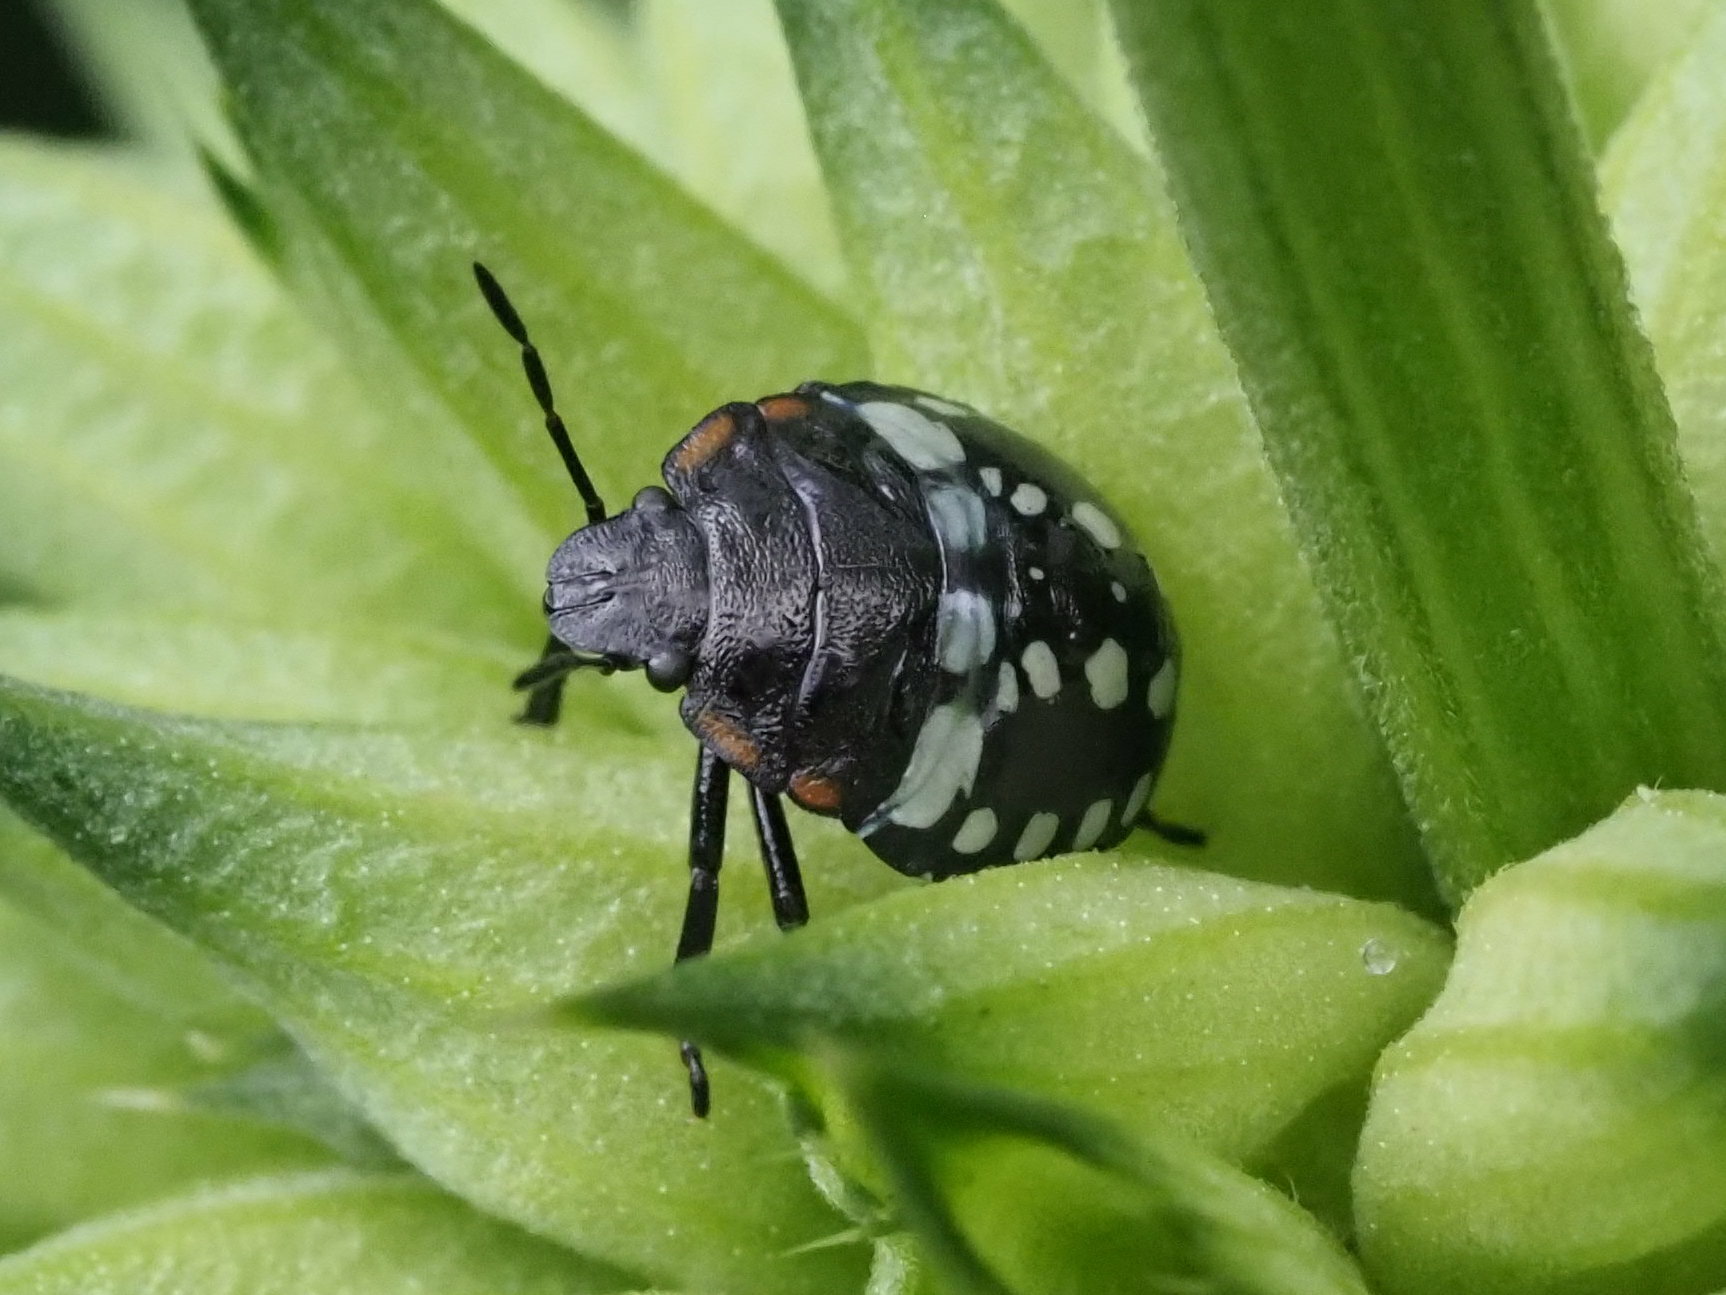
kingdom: Animalia
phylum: Arthropoda
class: Insecta
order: Hemiptera
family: Pentatomidae
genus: Nezara
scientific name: Nezara viridula
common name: Southern green stink bug
